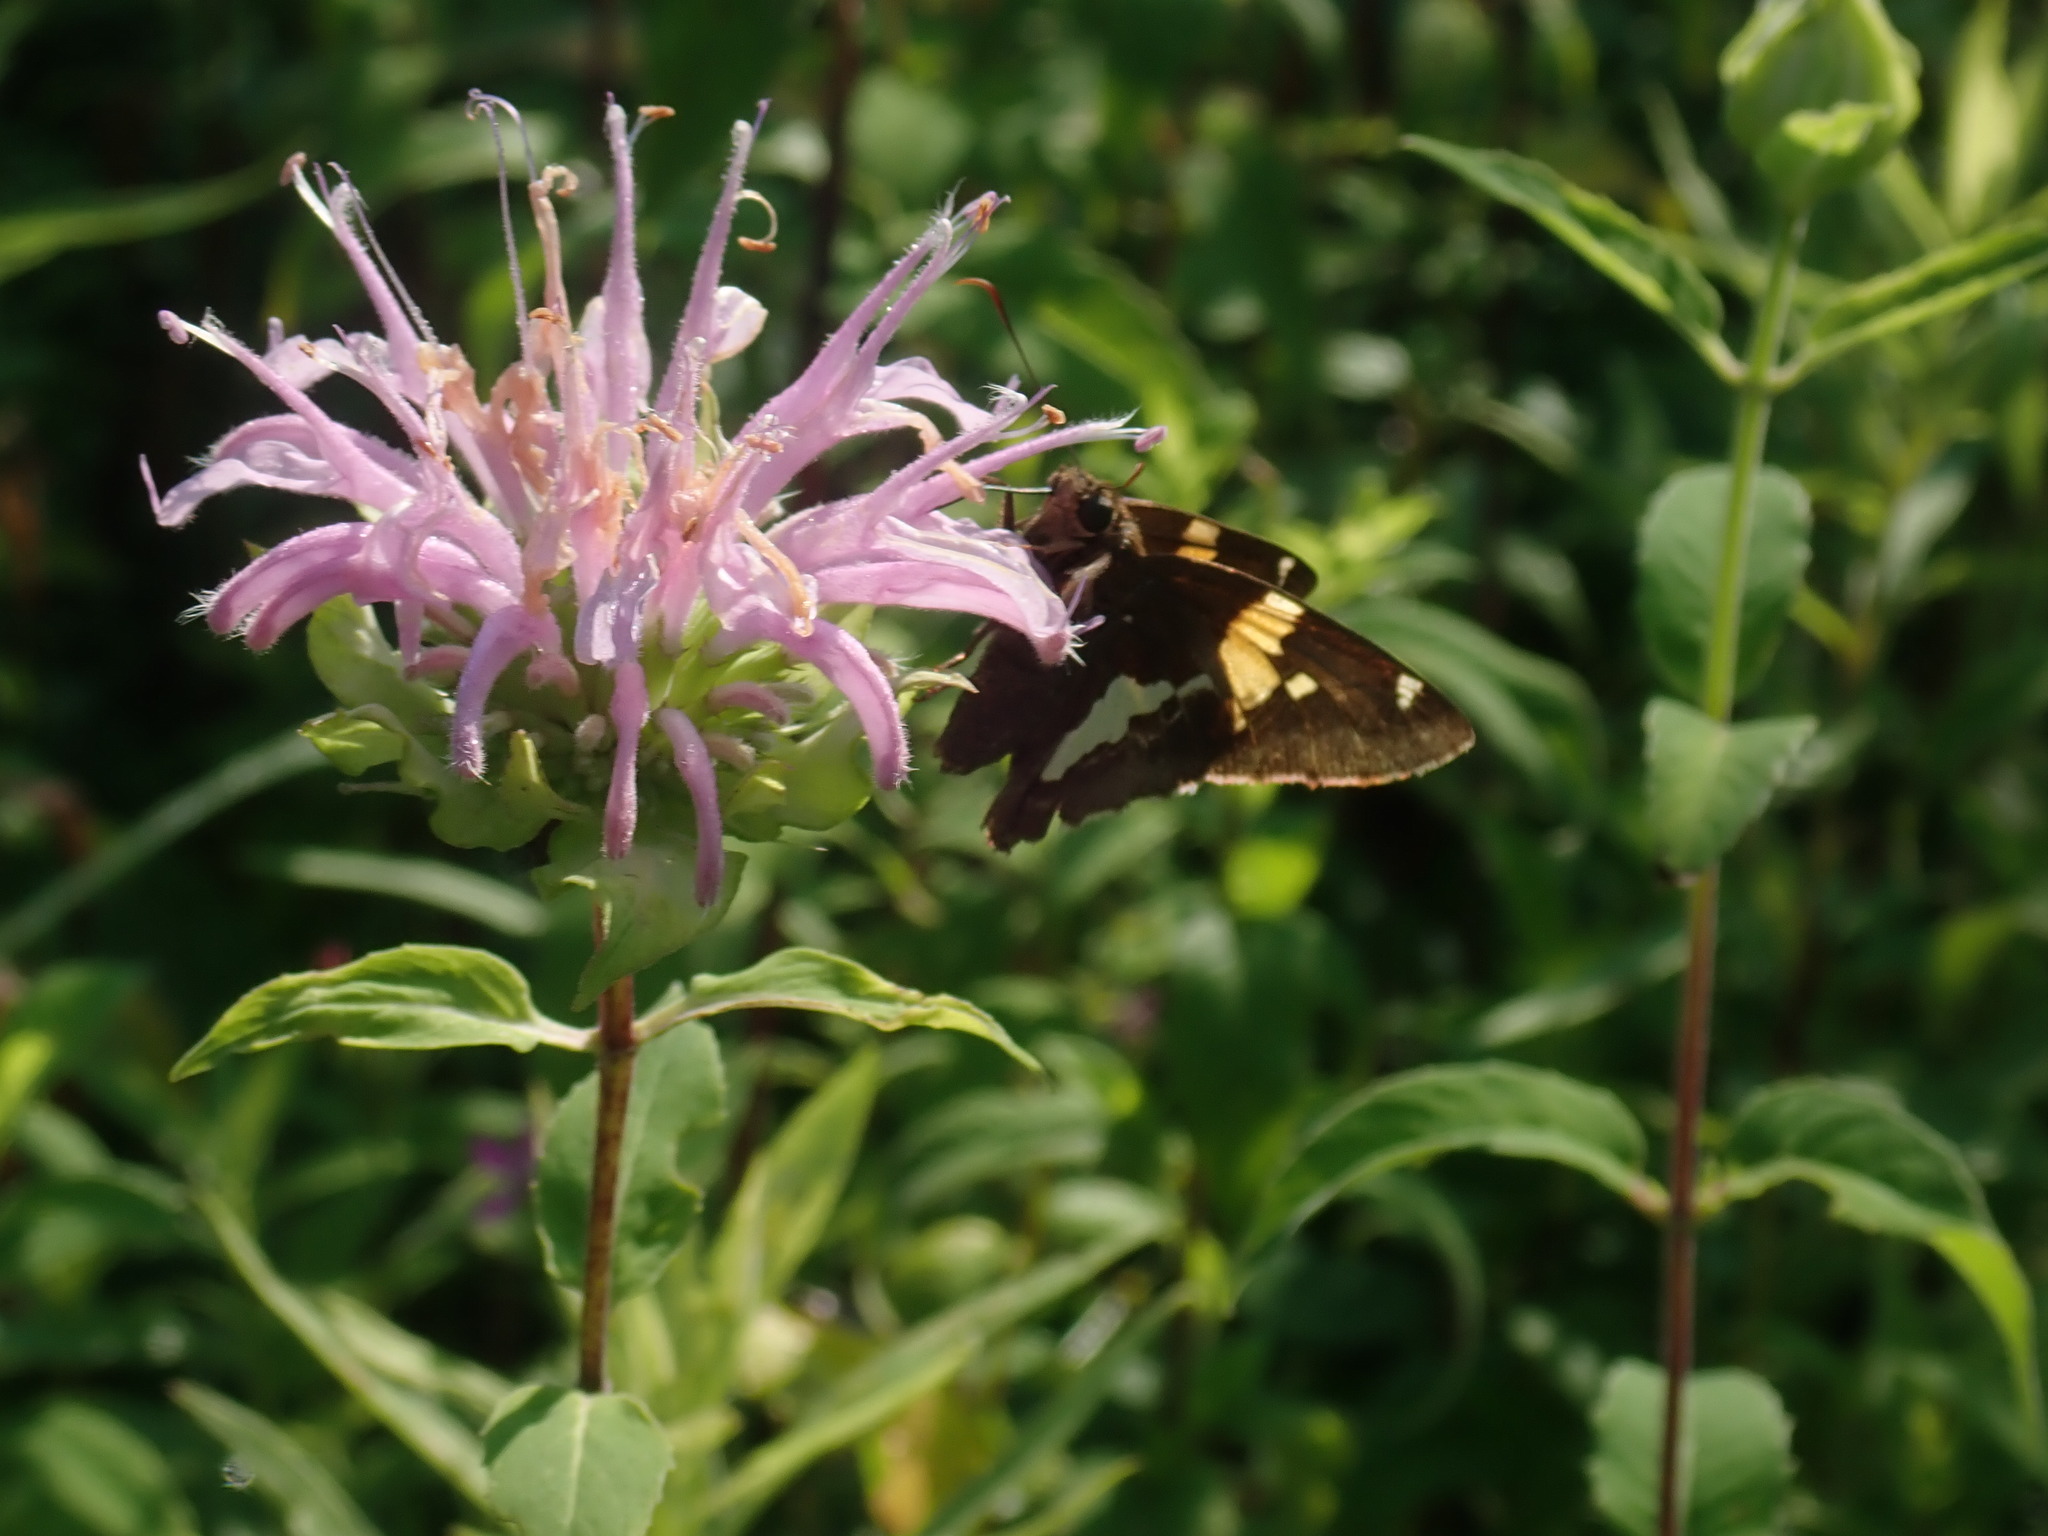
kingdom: Animalia
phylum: Arthropoda
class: Insecta
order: Lepidoptera
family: Hesperiidae
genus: Epargyreus
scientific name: Epargyreus clarus
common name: Silver-spotted skipper
